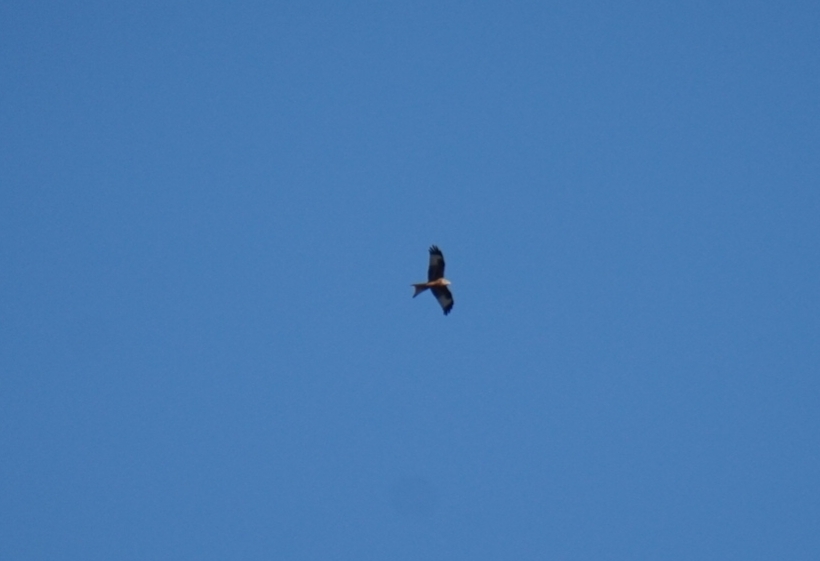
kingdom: Animalia
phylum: Chordata
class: Aves
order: Accipitriformes
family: Accipitridae
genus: Milvus
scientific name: Milvus milvus
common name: Red kite
